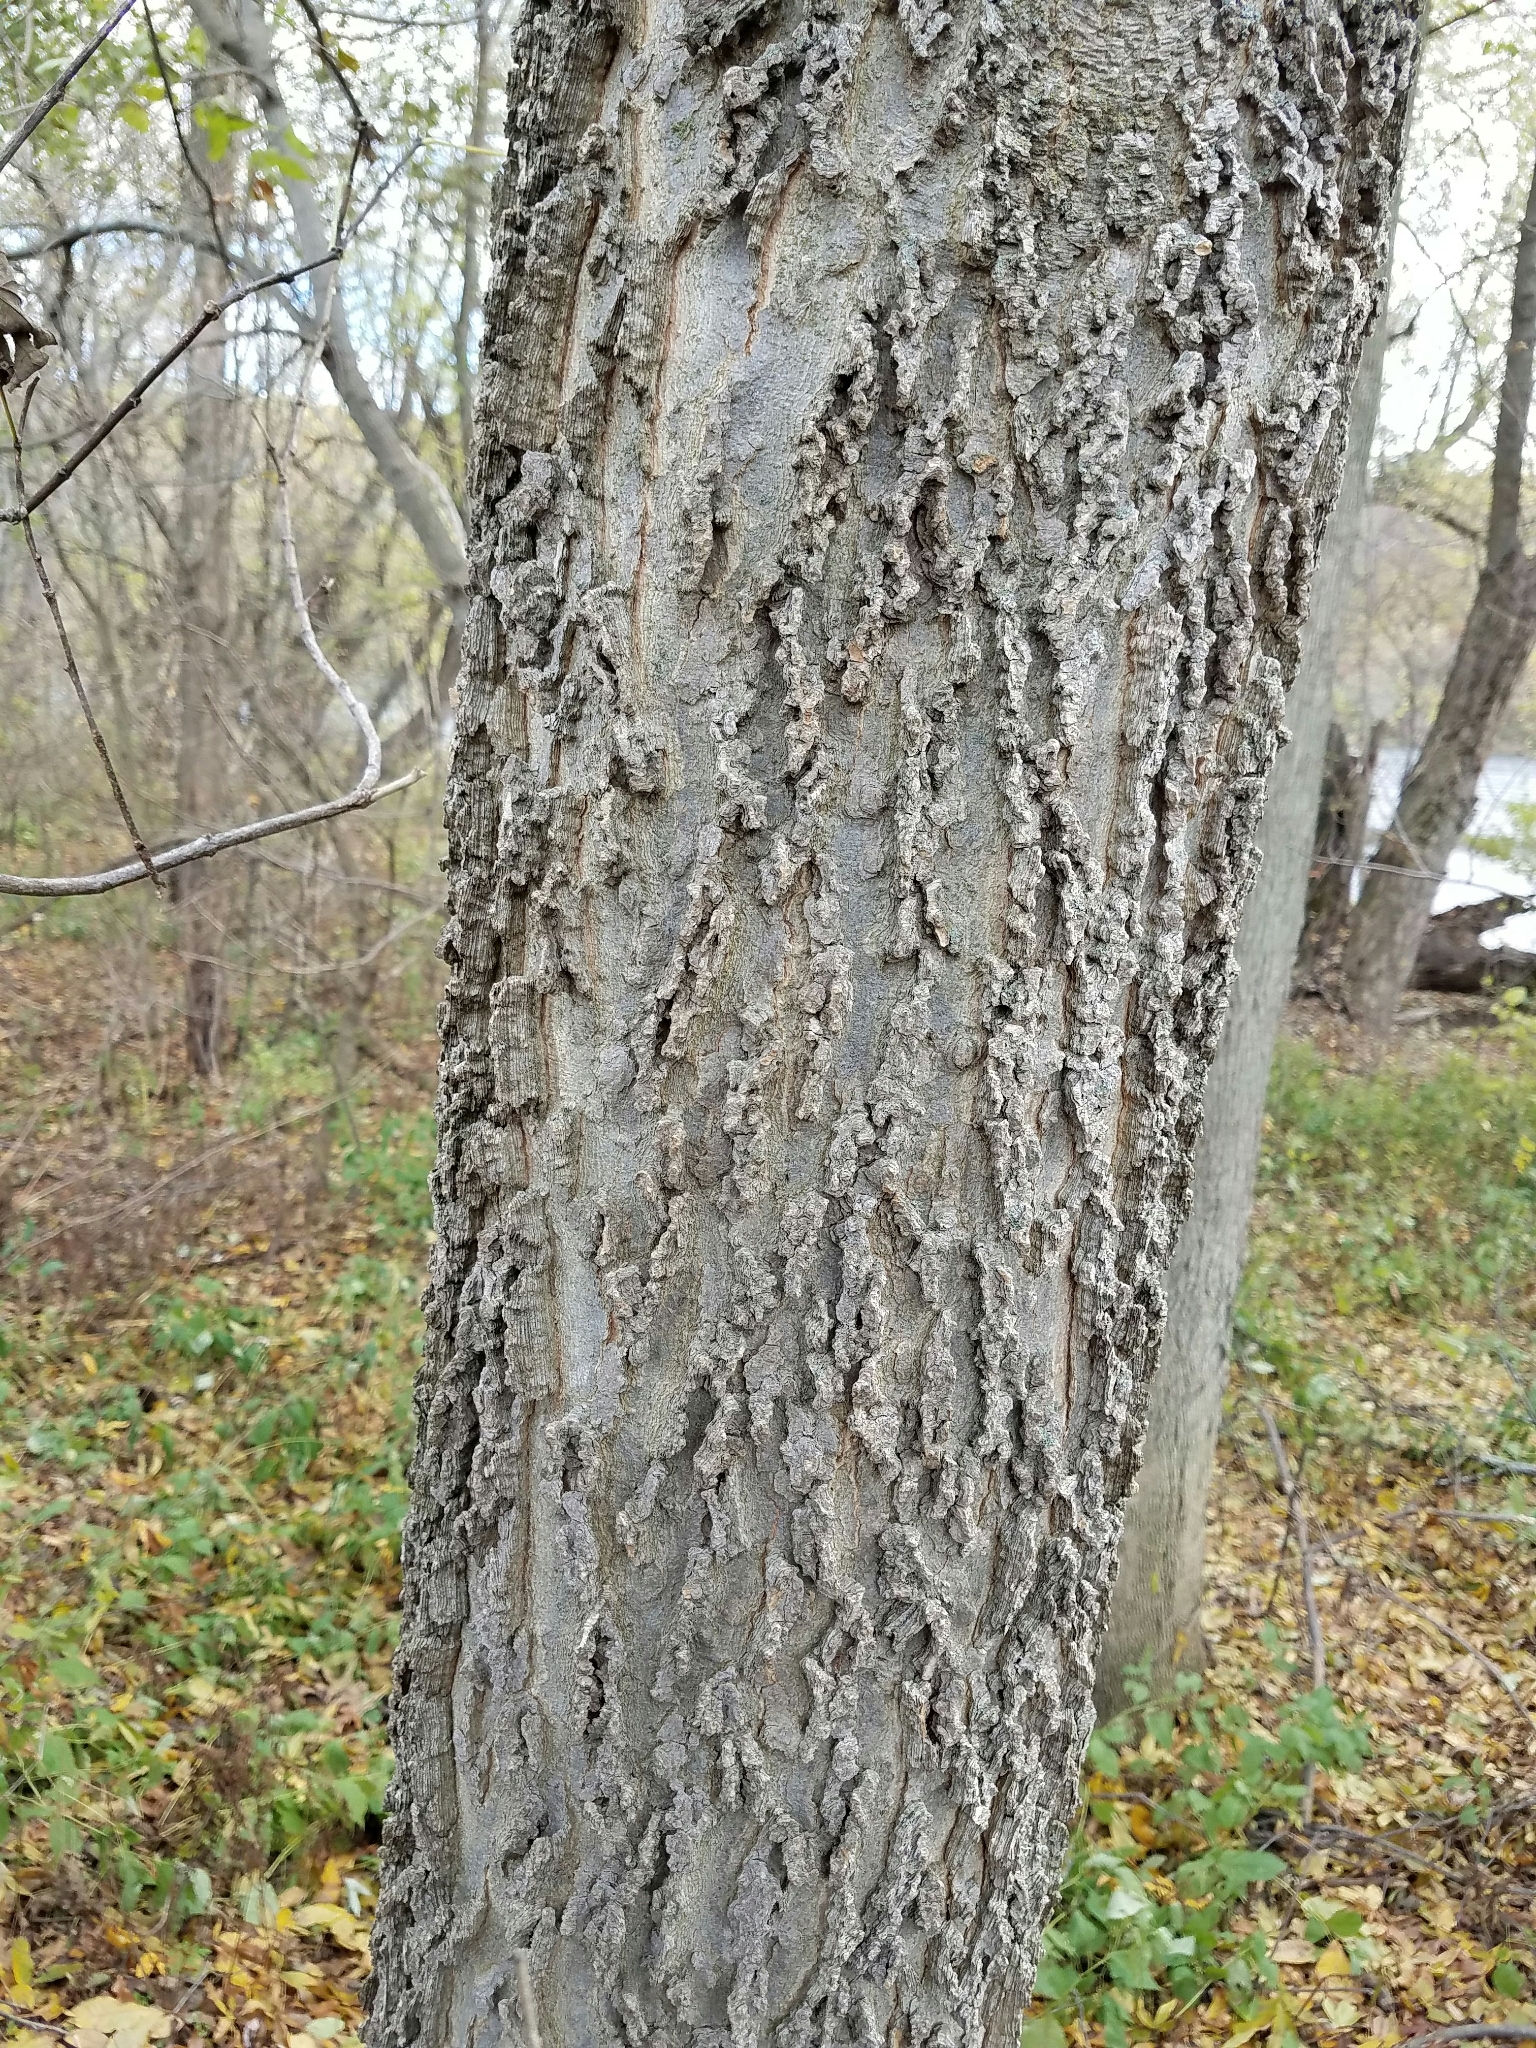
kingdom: Plantae
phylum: Tracheophyta
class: Magnoliopsida
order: Rosales
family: Cannabaceae
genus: Celtis
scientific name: Celtis occidentalis
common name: Common hackberry
